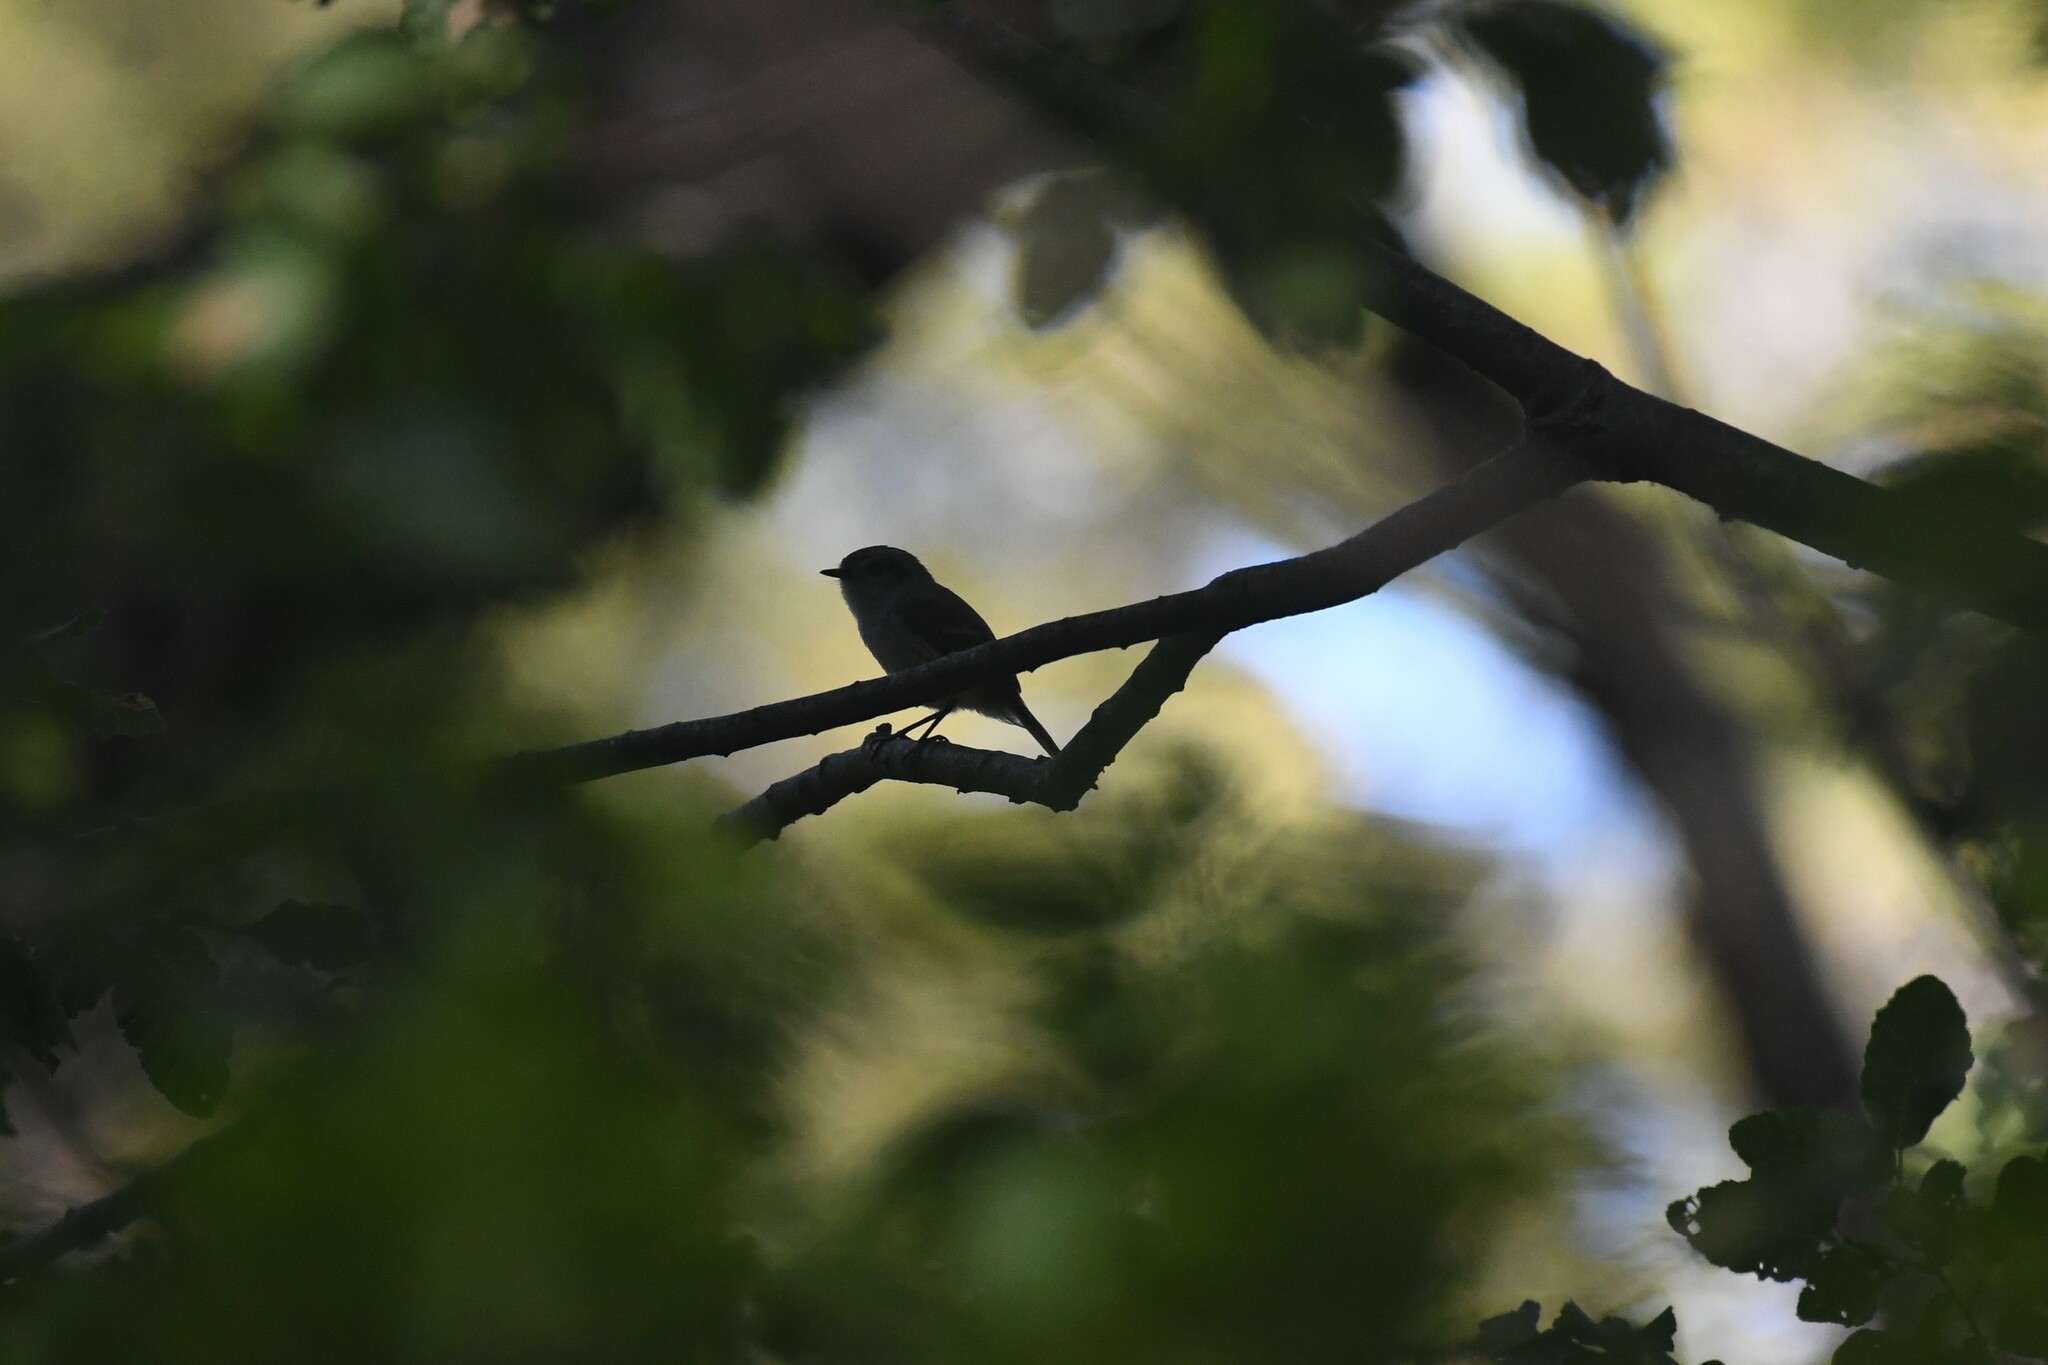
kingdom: Animalia
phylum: Chordata
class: Aves
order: Passeriformes
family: Tyrannidae
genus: Colorhamphus
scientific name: Colorhamphus parvirostris
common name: Patagonian tyrant
